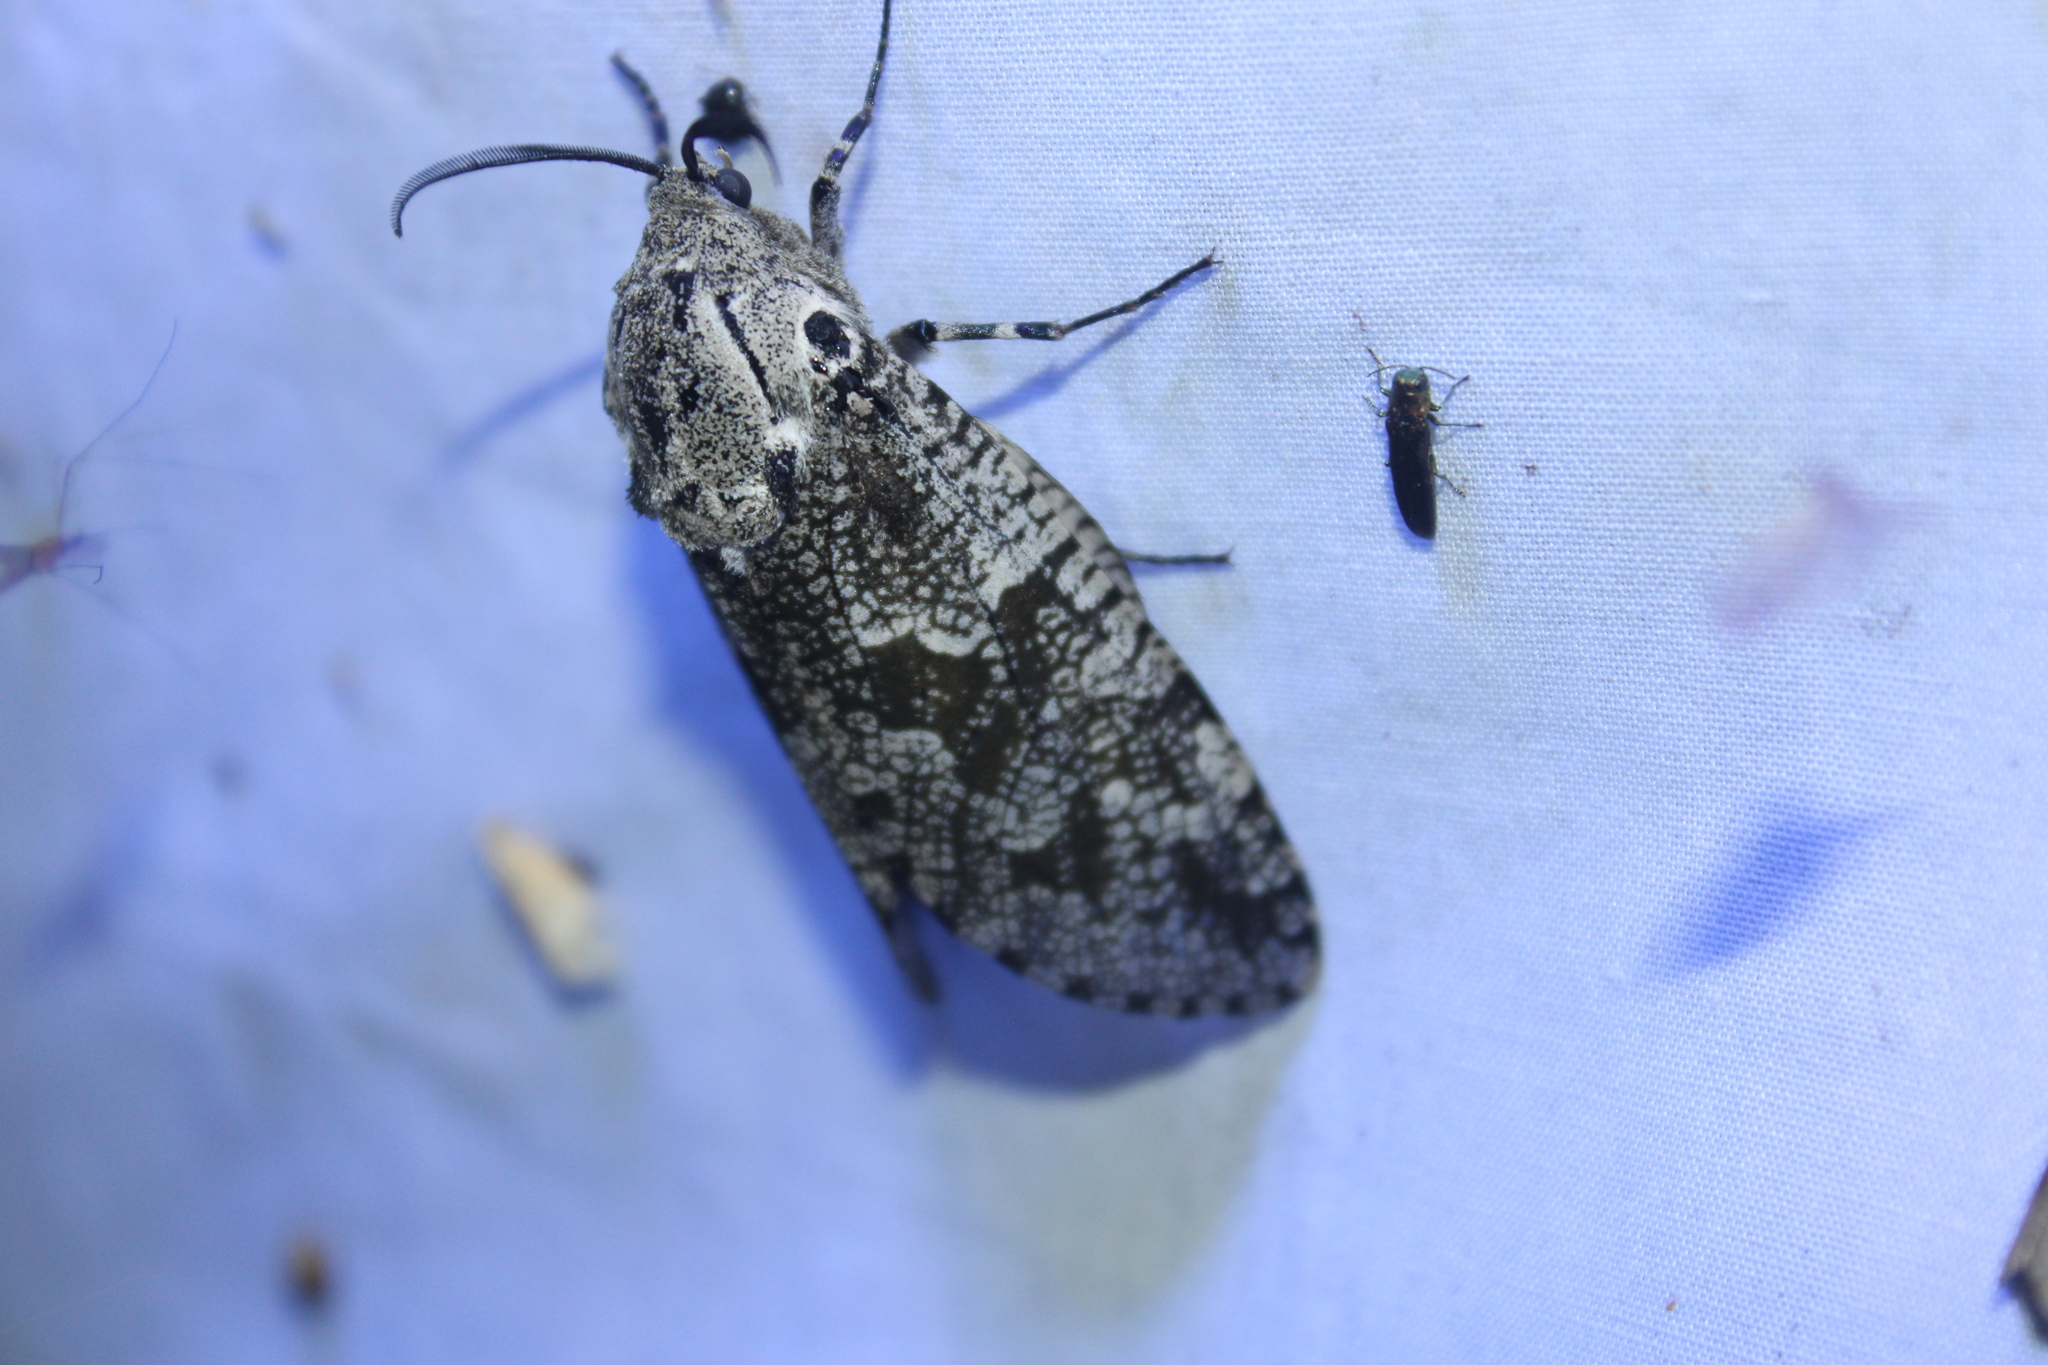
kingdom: Animalia
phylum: Arthropoda
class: Insecta
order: Lepidoptera
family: Cossidae
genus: Prionoxystus
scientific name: Prionoxystus robiniae
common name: Carpenterworm
